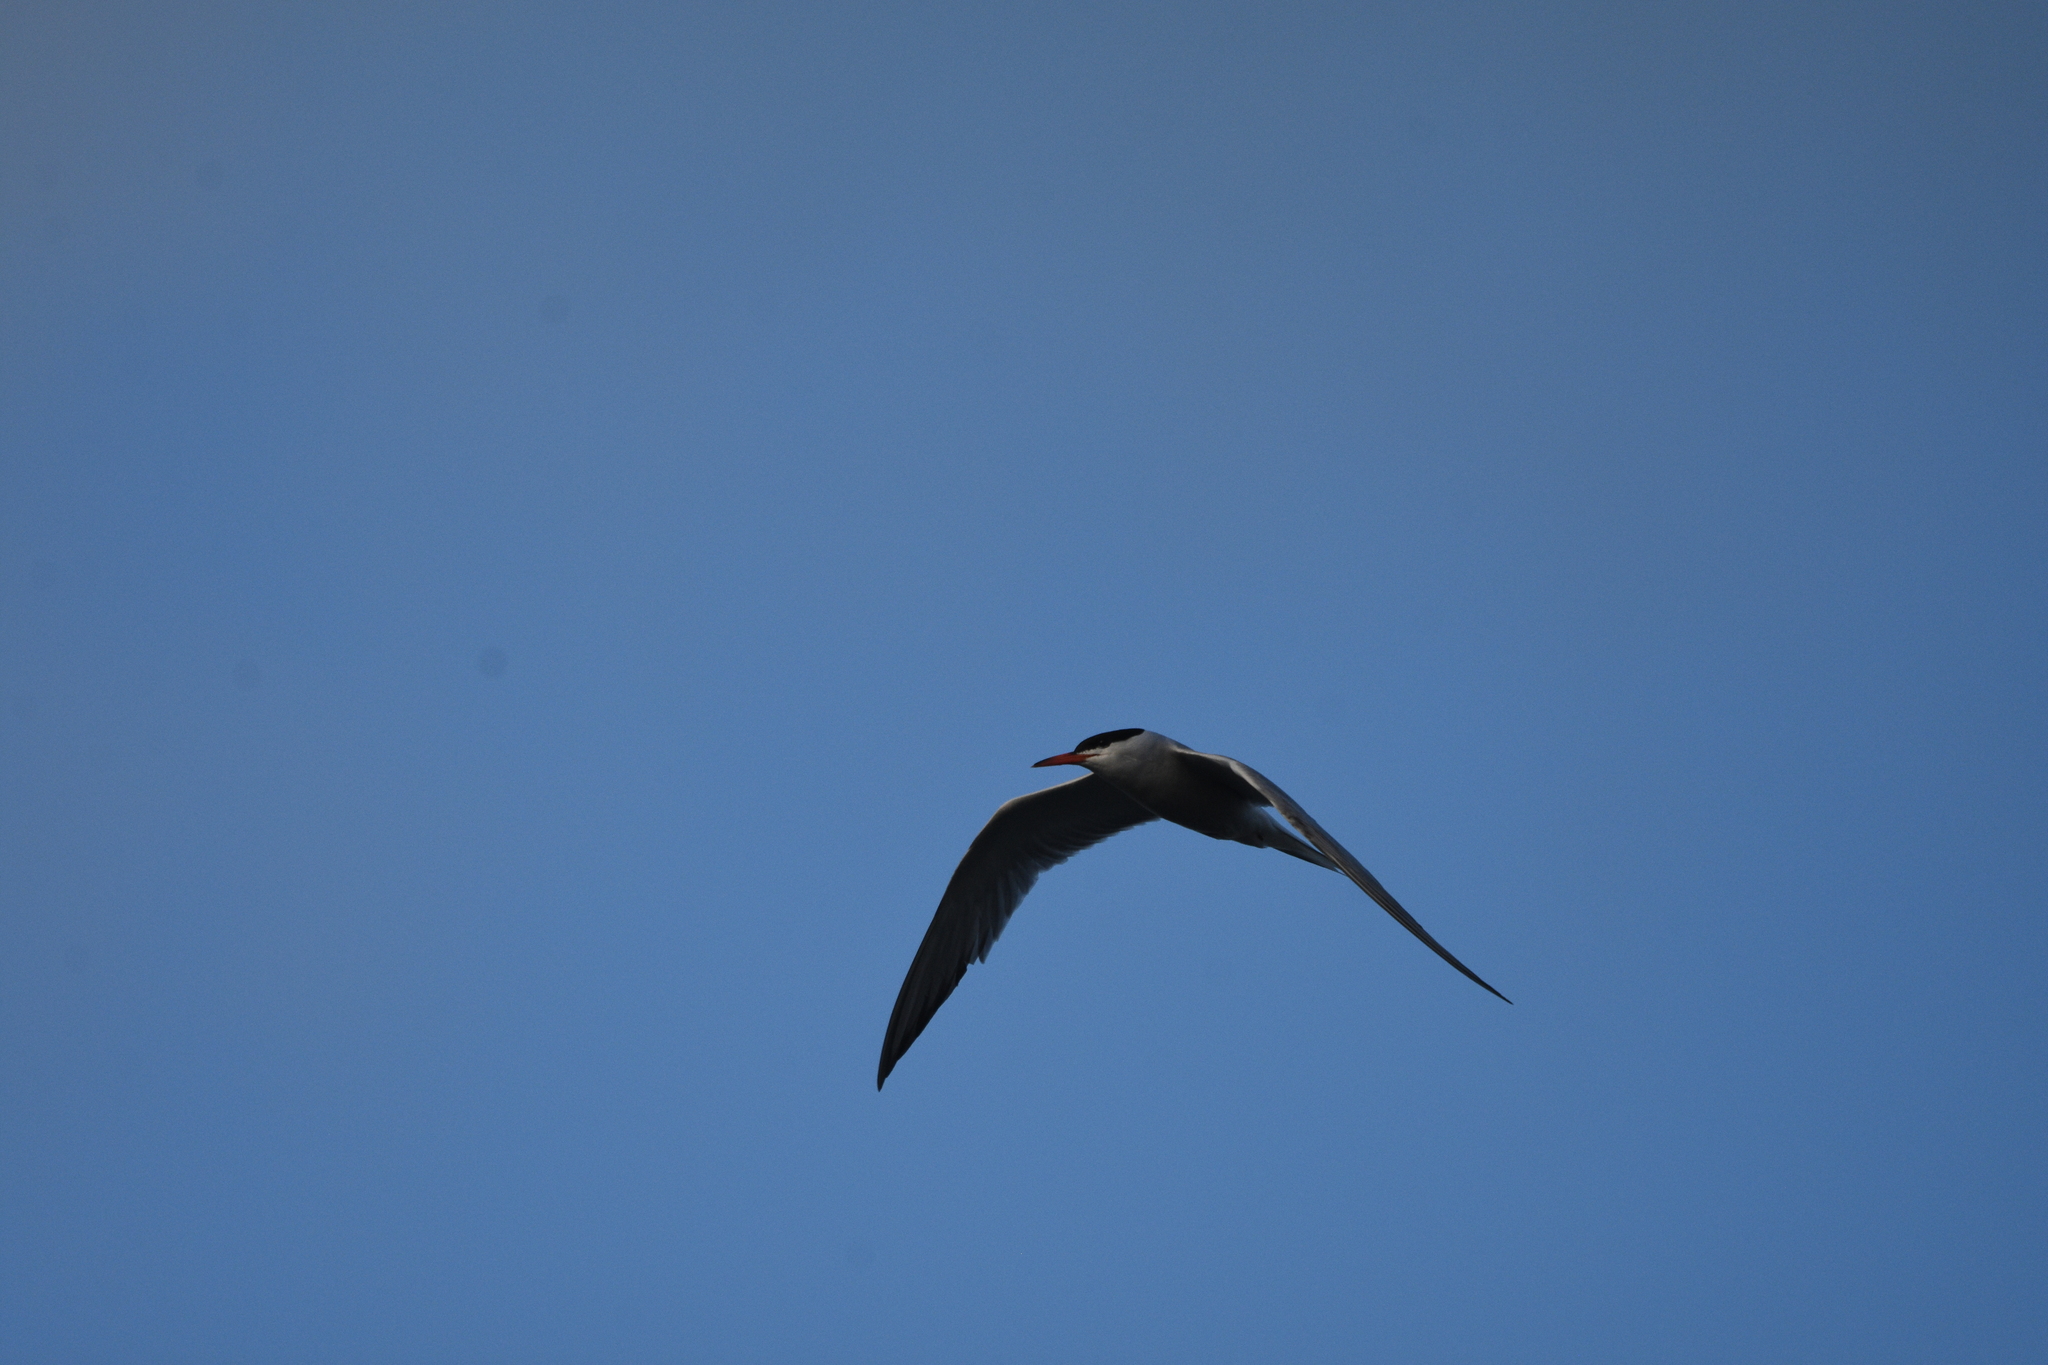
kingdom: Animalia
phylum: Chordata
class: Aves
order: Charadriiformes
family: Laridae
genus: Sterna
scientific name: Sterna hirundo
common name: Common tern
